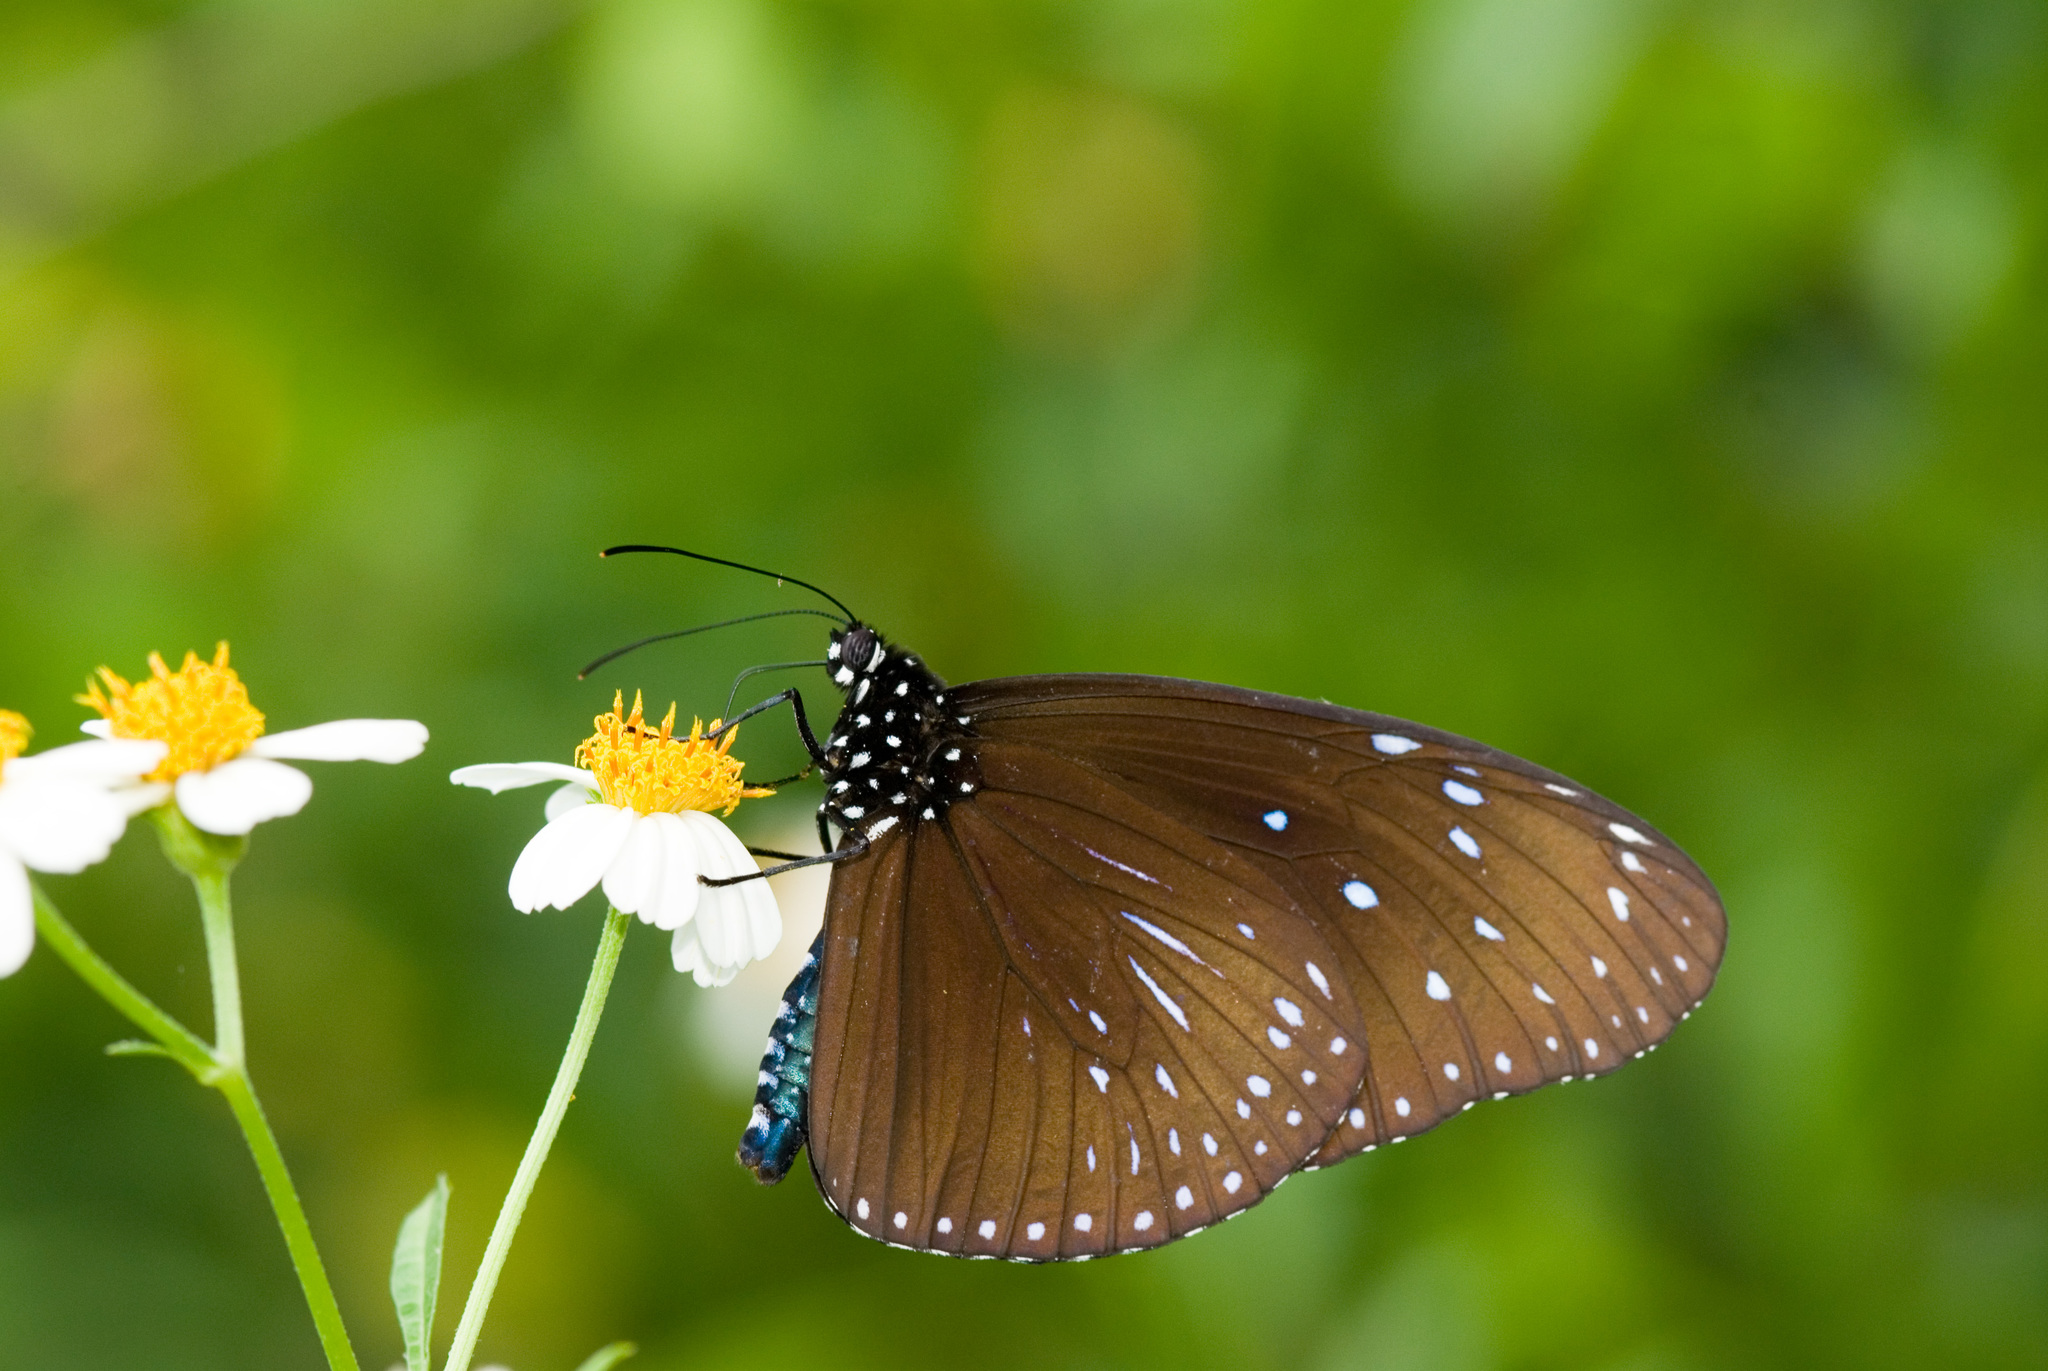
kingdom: Animalia
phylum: Arthropoda
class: Insecta
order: Lepidoptera
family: Nymphalidae
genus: Euploea
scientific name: Euploea mulciber
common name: Striped blue crow butterfly
